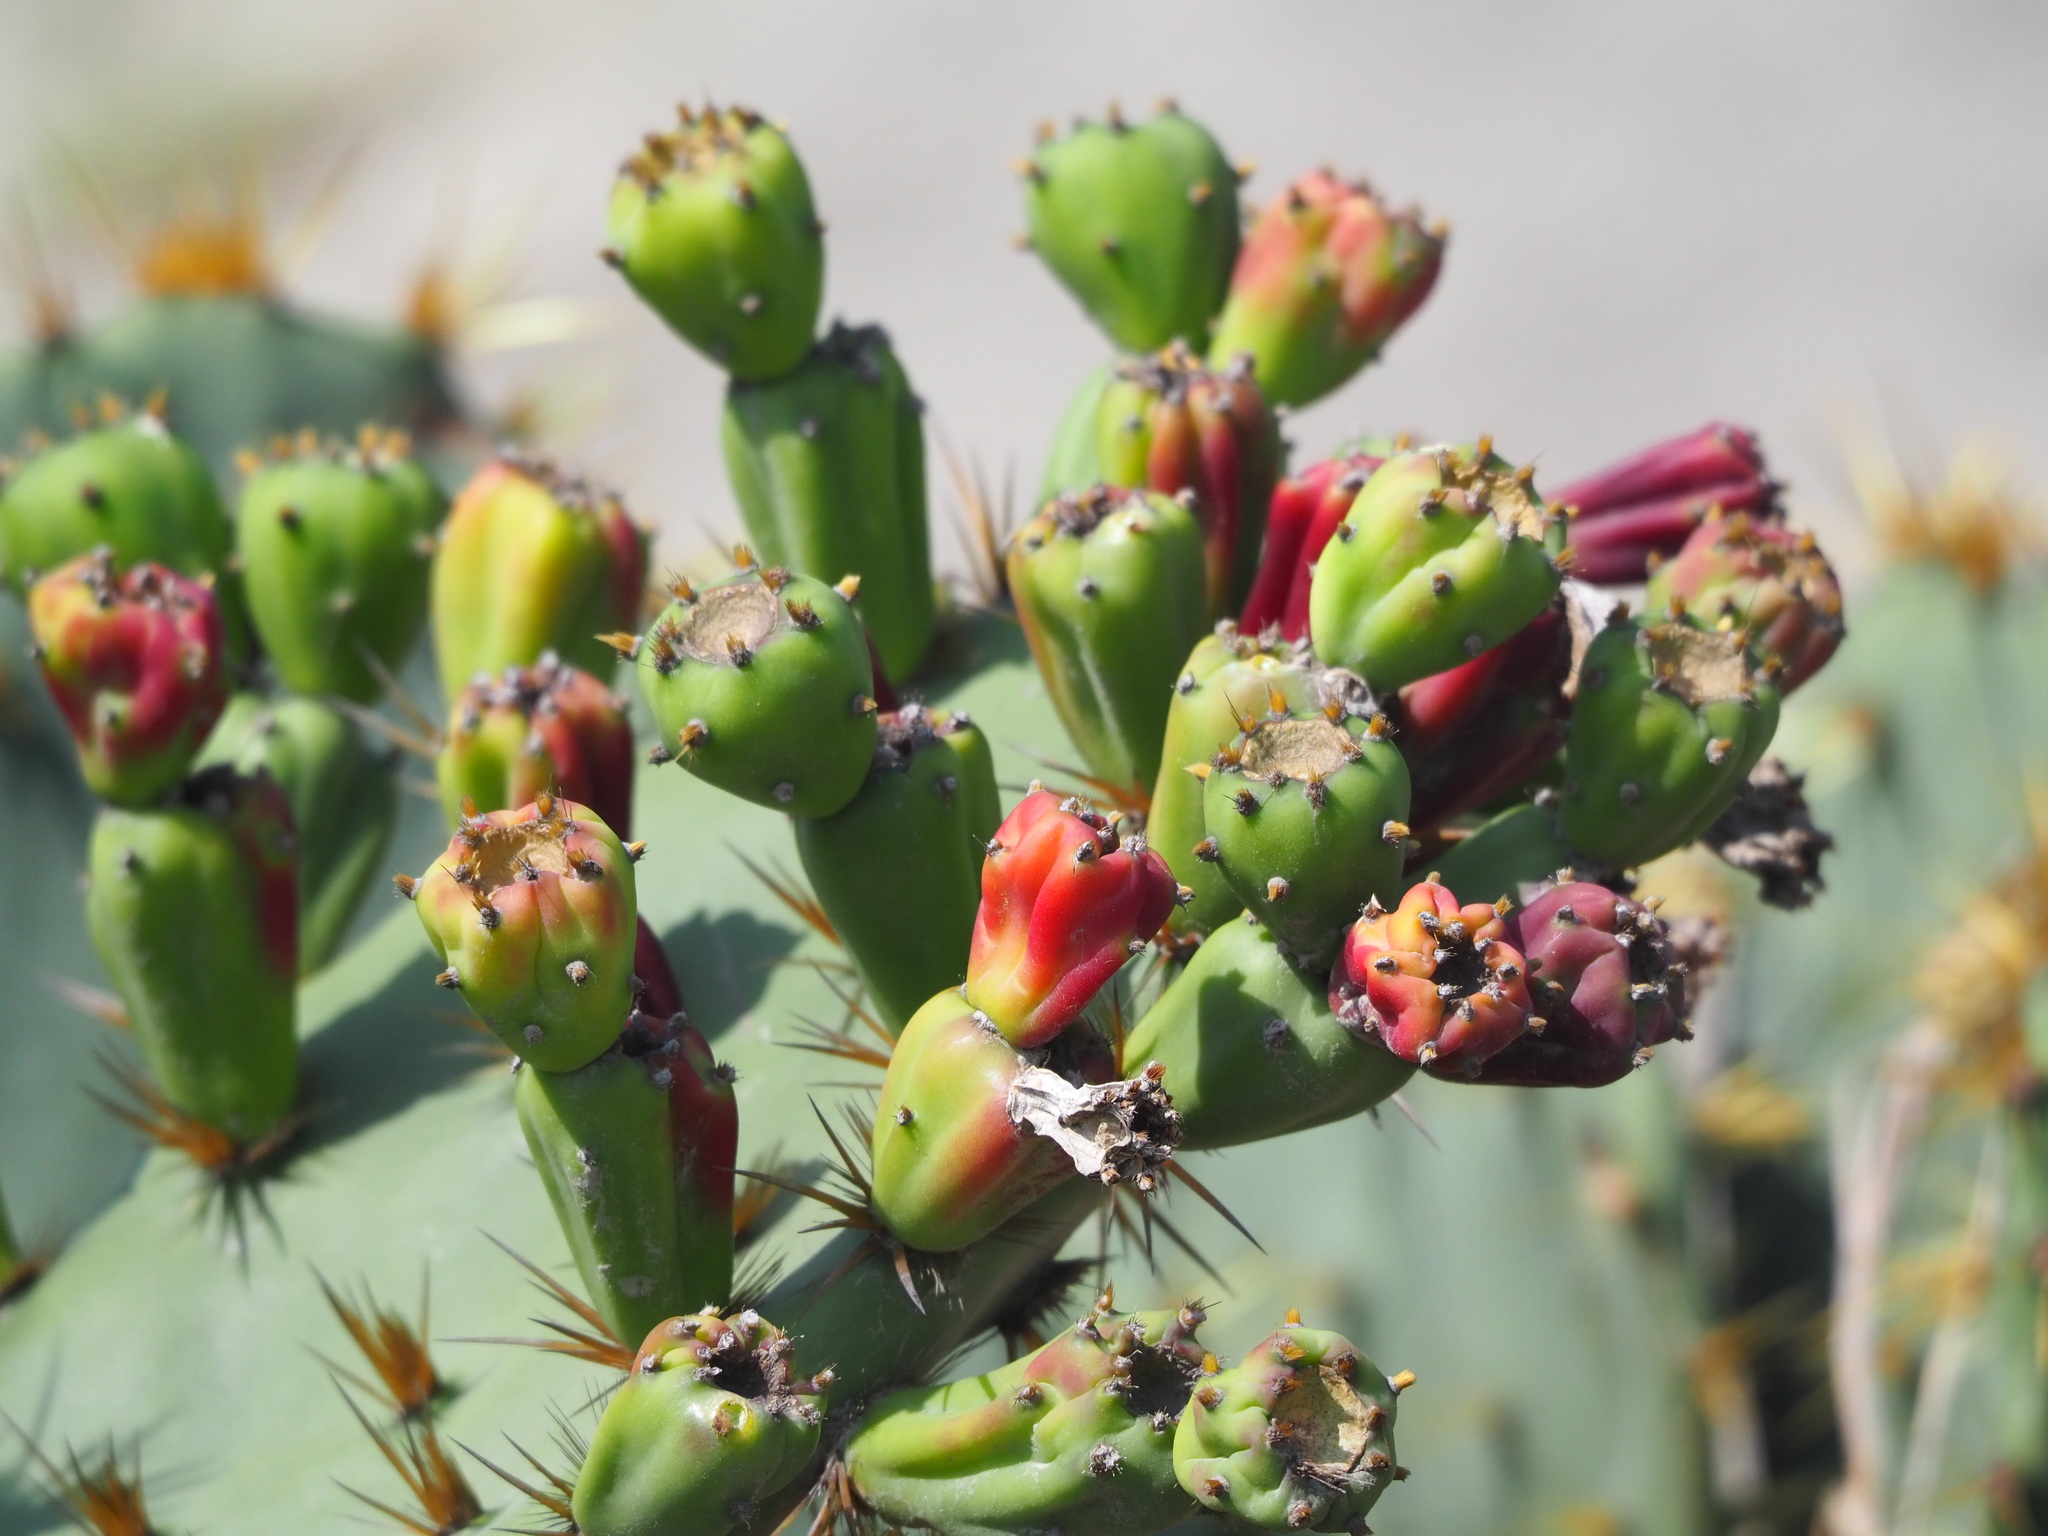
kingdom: Plantae
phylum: Tracheophyta
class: Magnoliopsida
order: Caryophyllales
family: Cactaceae
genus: Opuntia
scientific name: Opuntia dillenii
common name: Sour prickle
